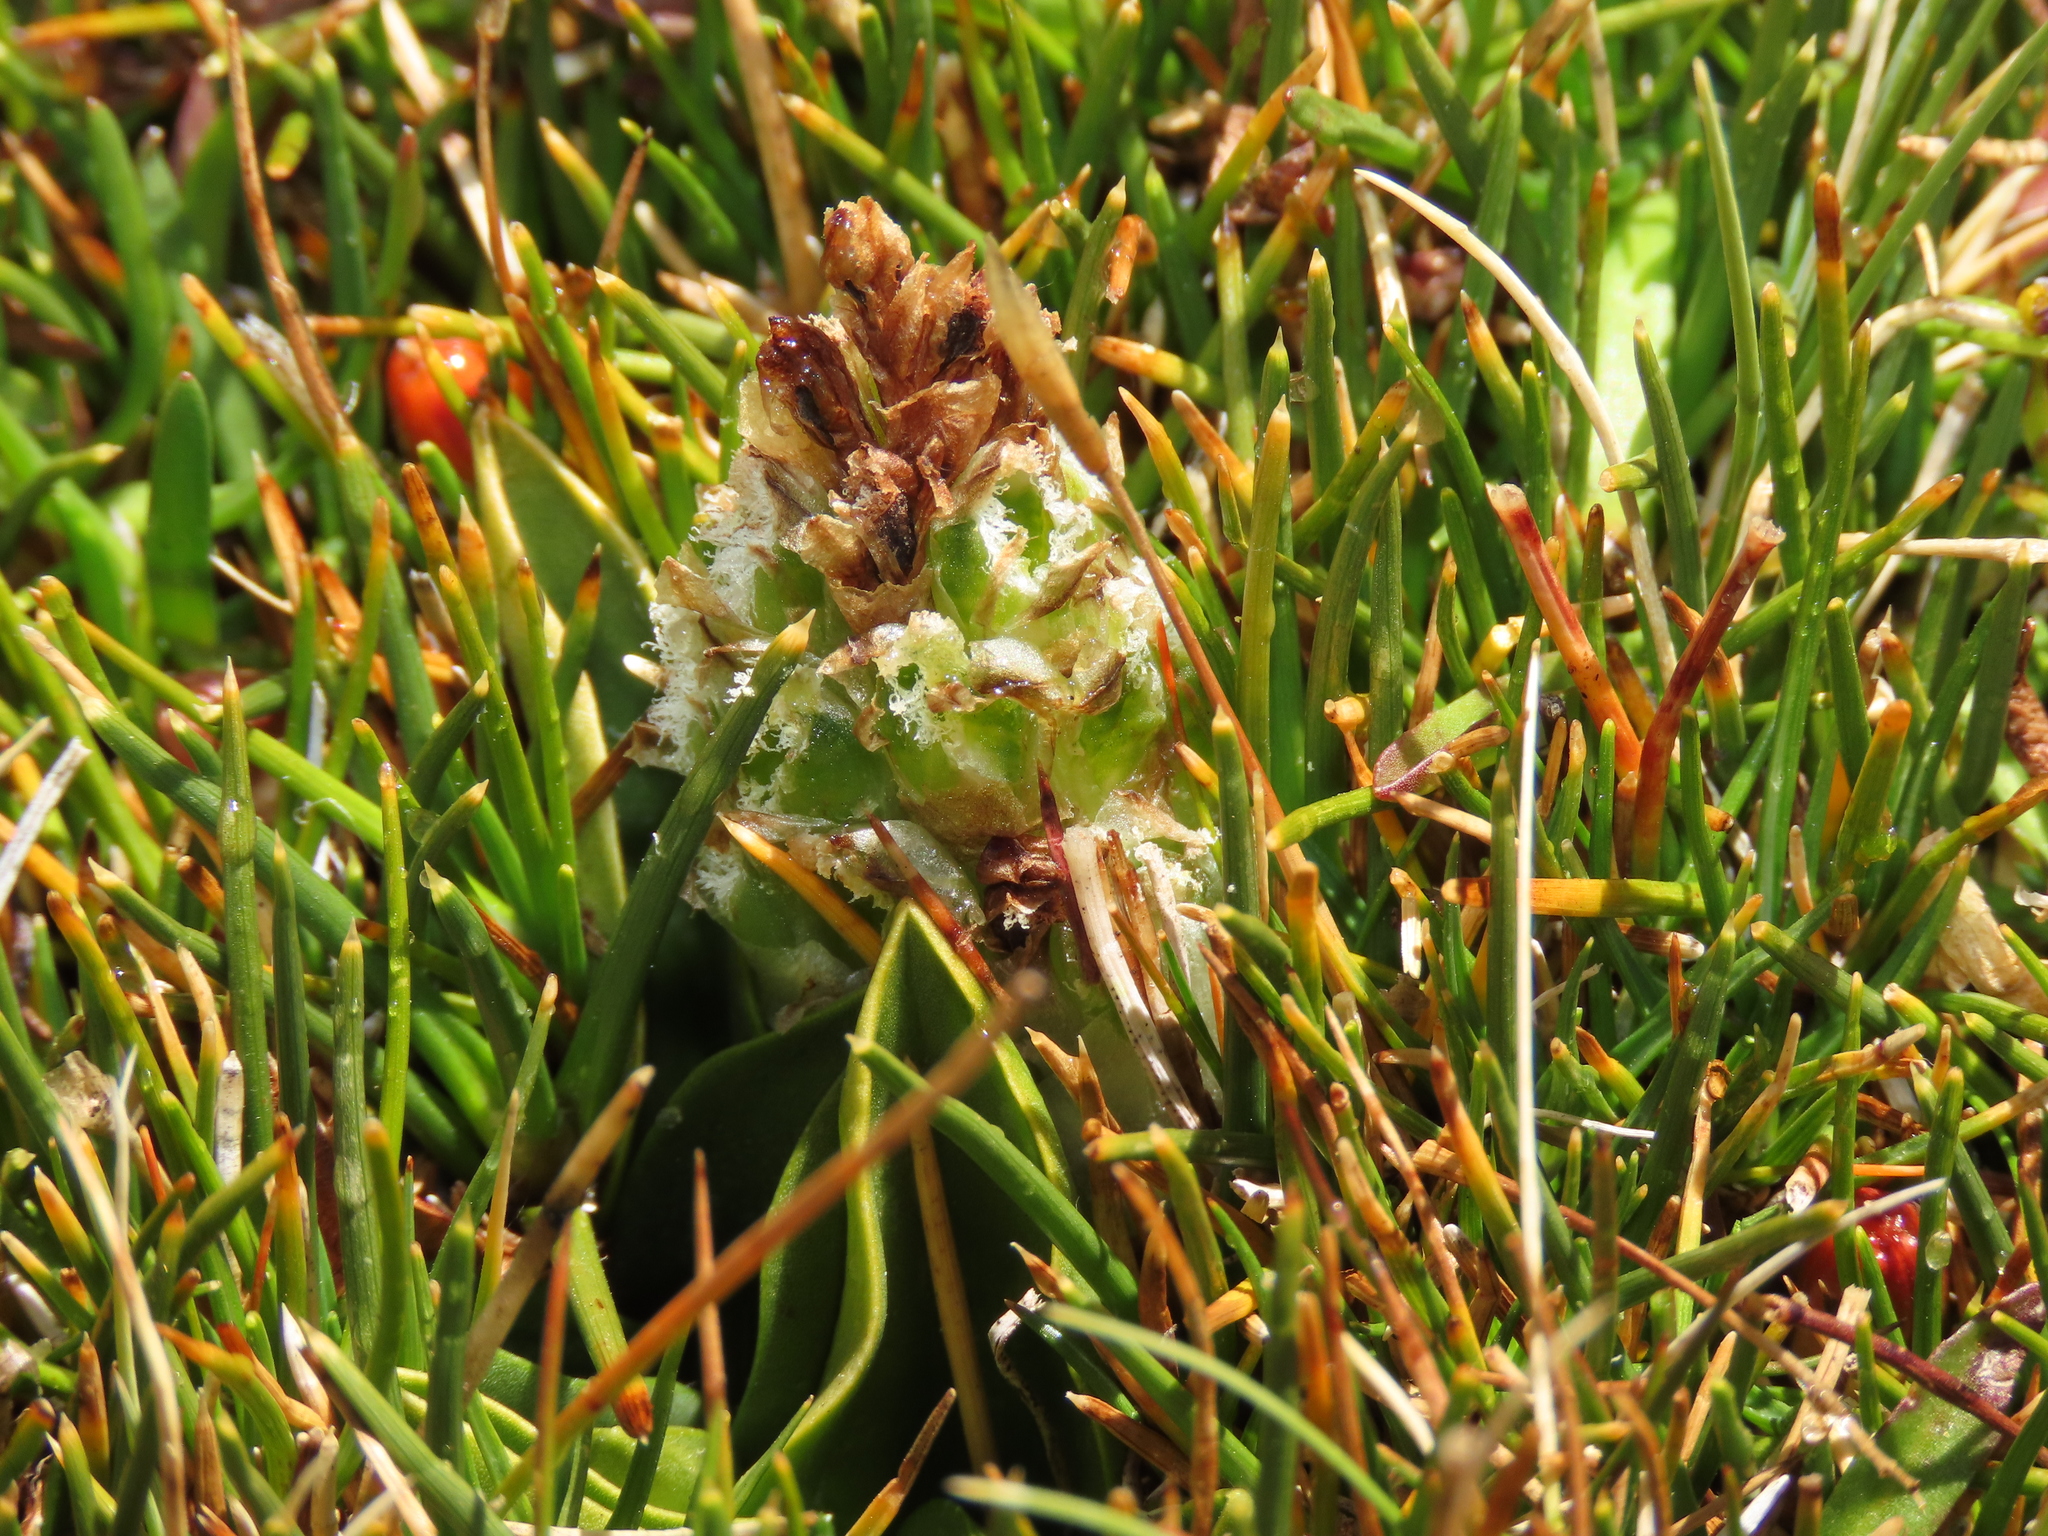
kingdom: Plantae
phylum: Tracheophyta
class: Liliopsida
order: Asparagales
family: Orchidaceae
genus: Myrosmodes
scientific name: Myrosmodes nervosa
